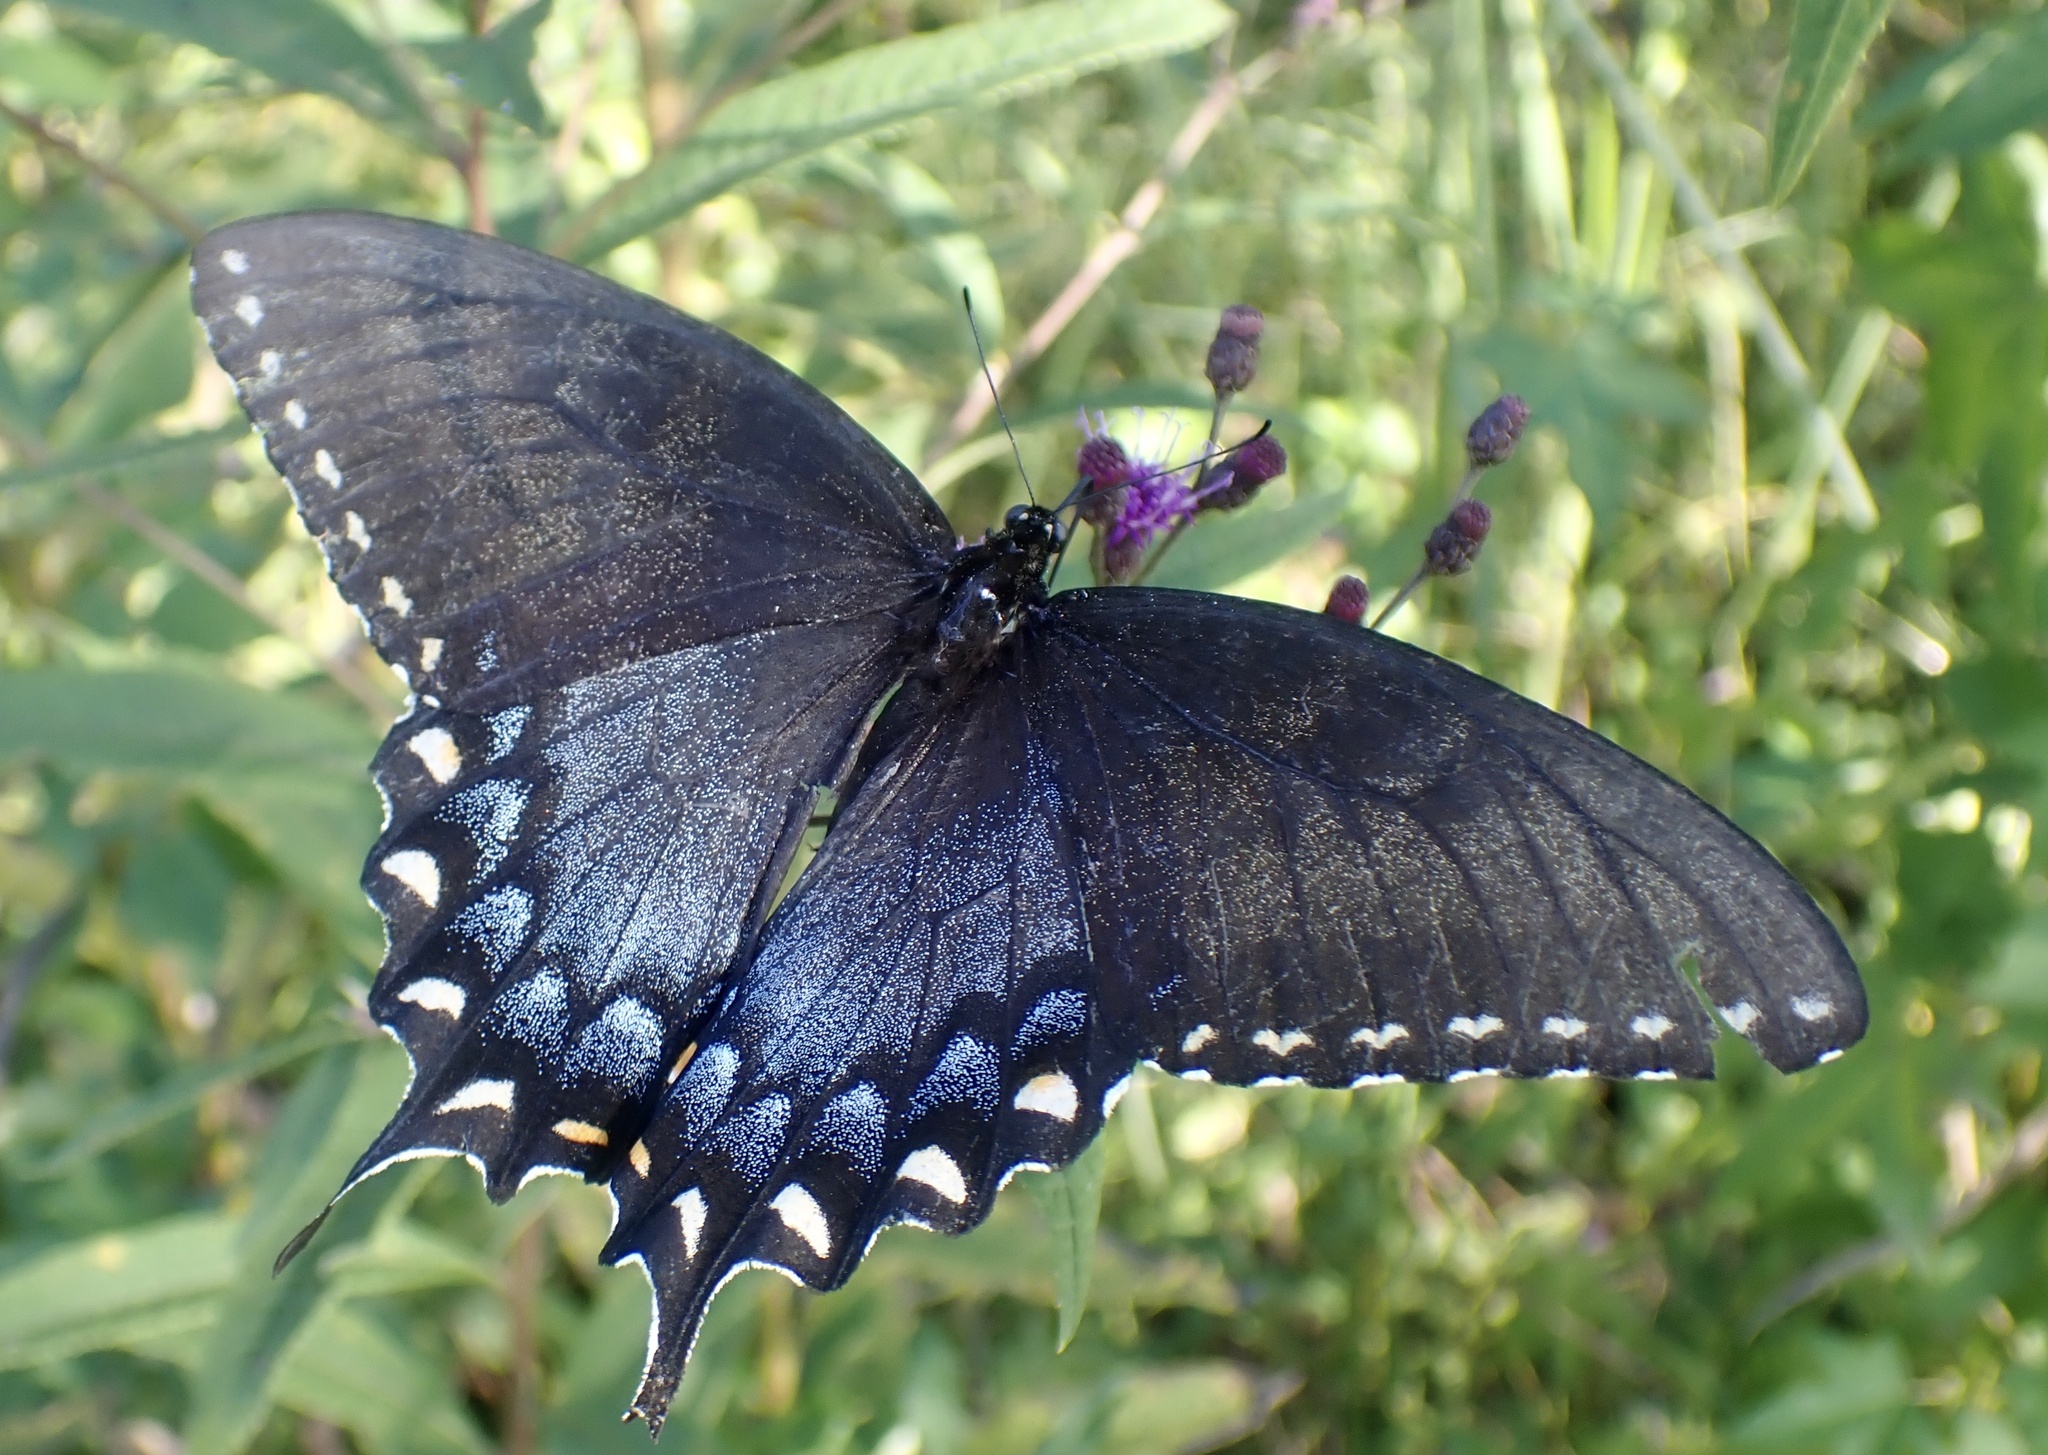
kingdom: Animalia
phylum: Arthropoda
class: Insecta
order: Lepidoptera
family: Papilionidae
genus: Papilio
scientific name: Papilio glaucus
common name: Tiger swallowtail
